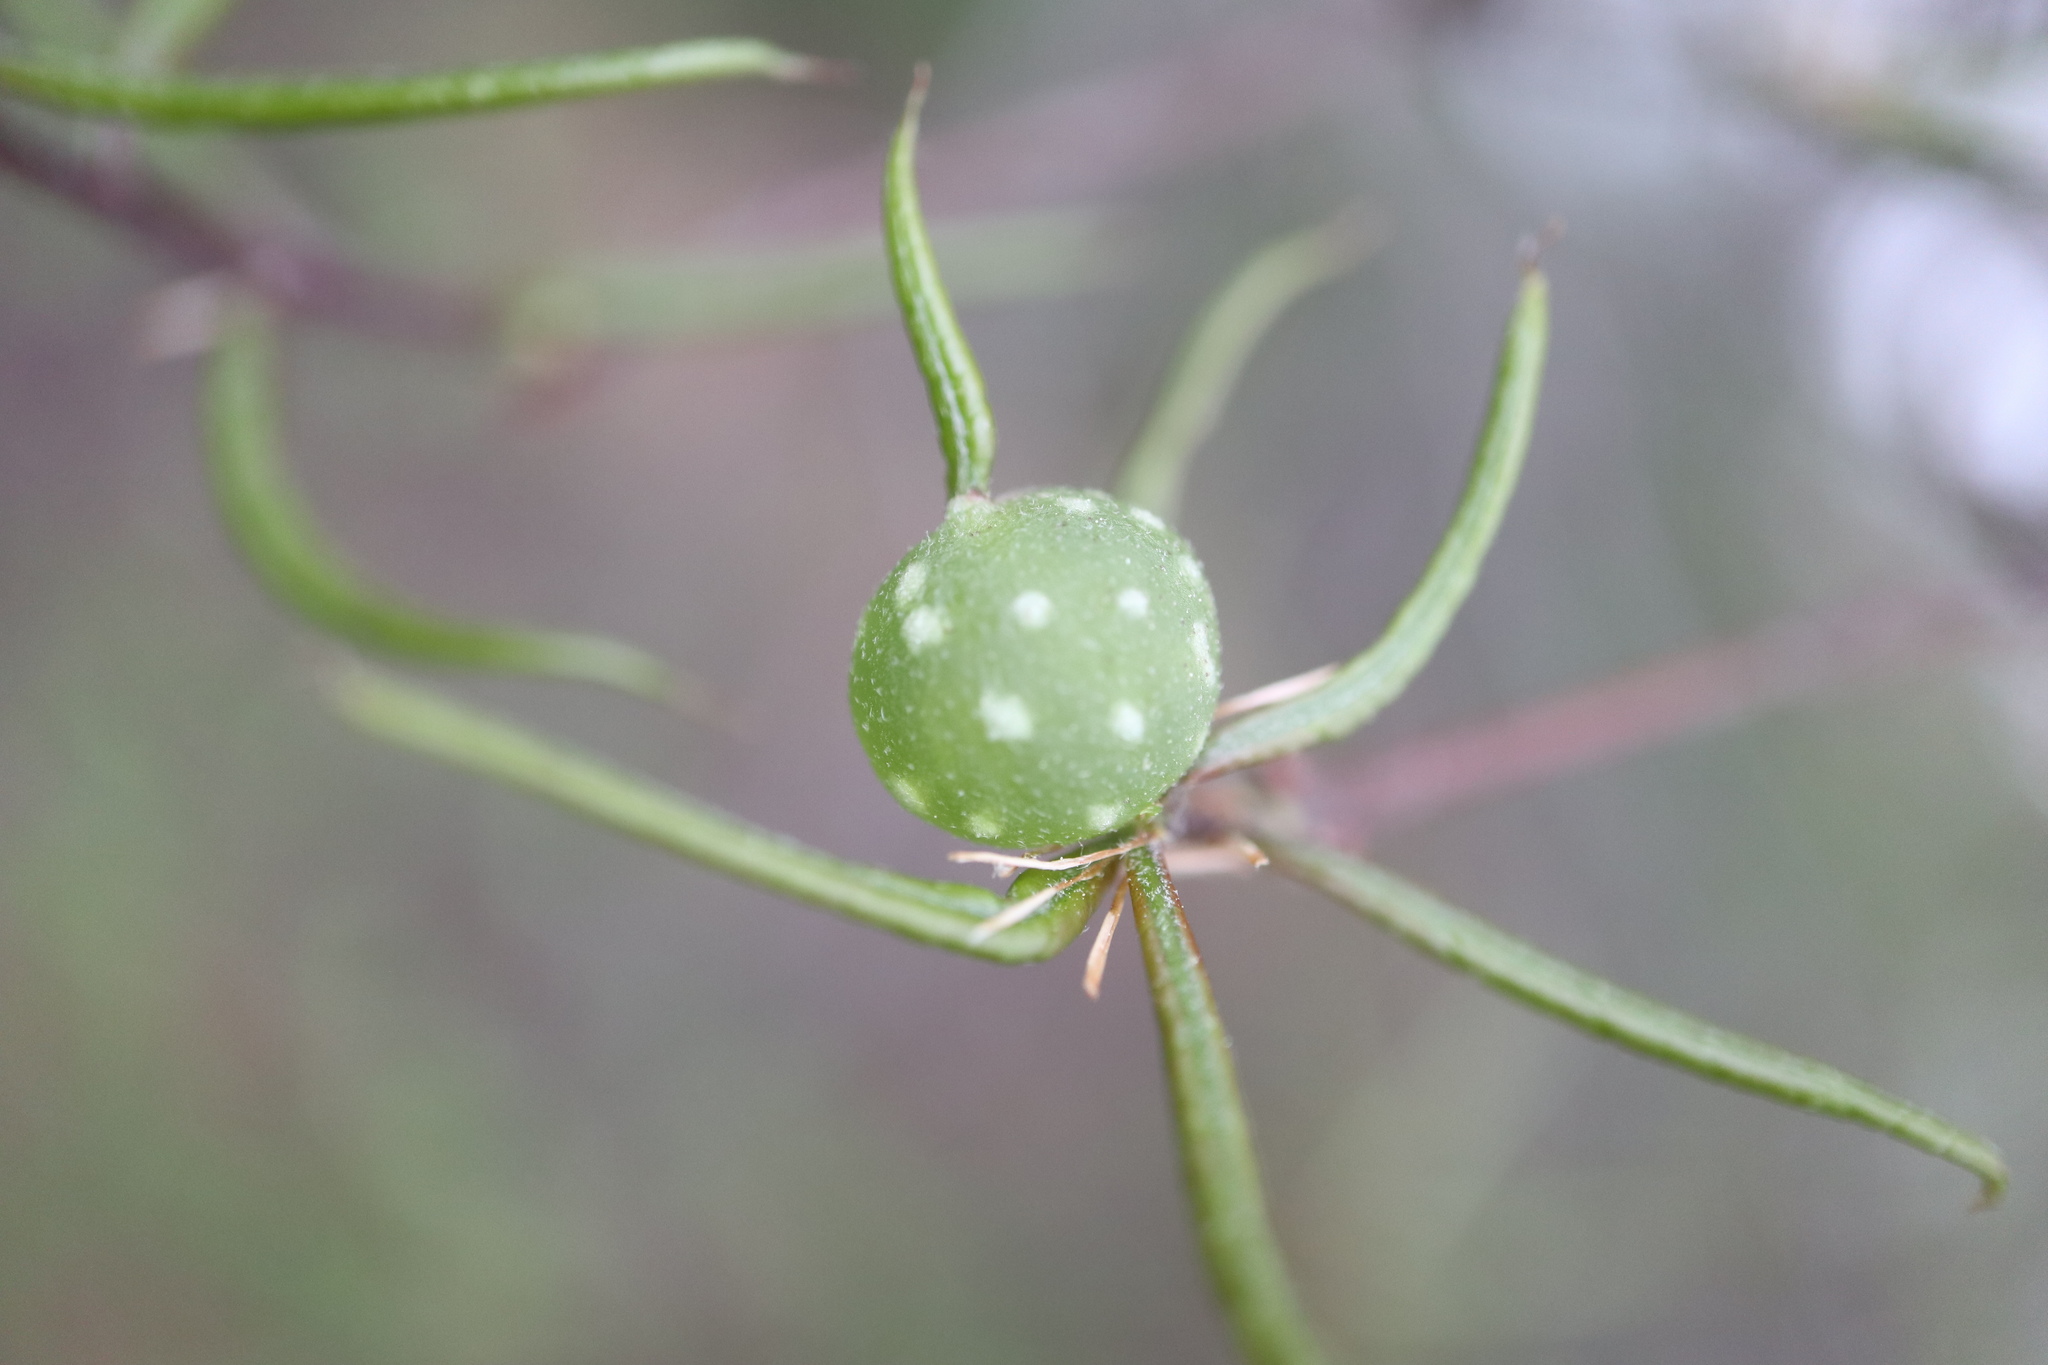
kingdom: Animalia
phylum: Arthropoda
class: Insecta
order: Hymenoptera
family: Cynipidae
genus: Dryocosmus
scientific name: Dryocosmus
